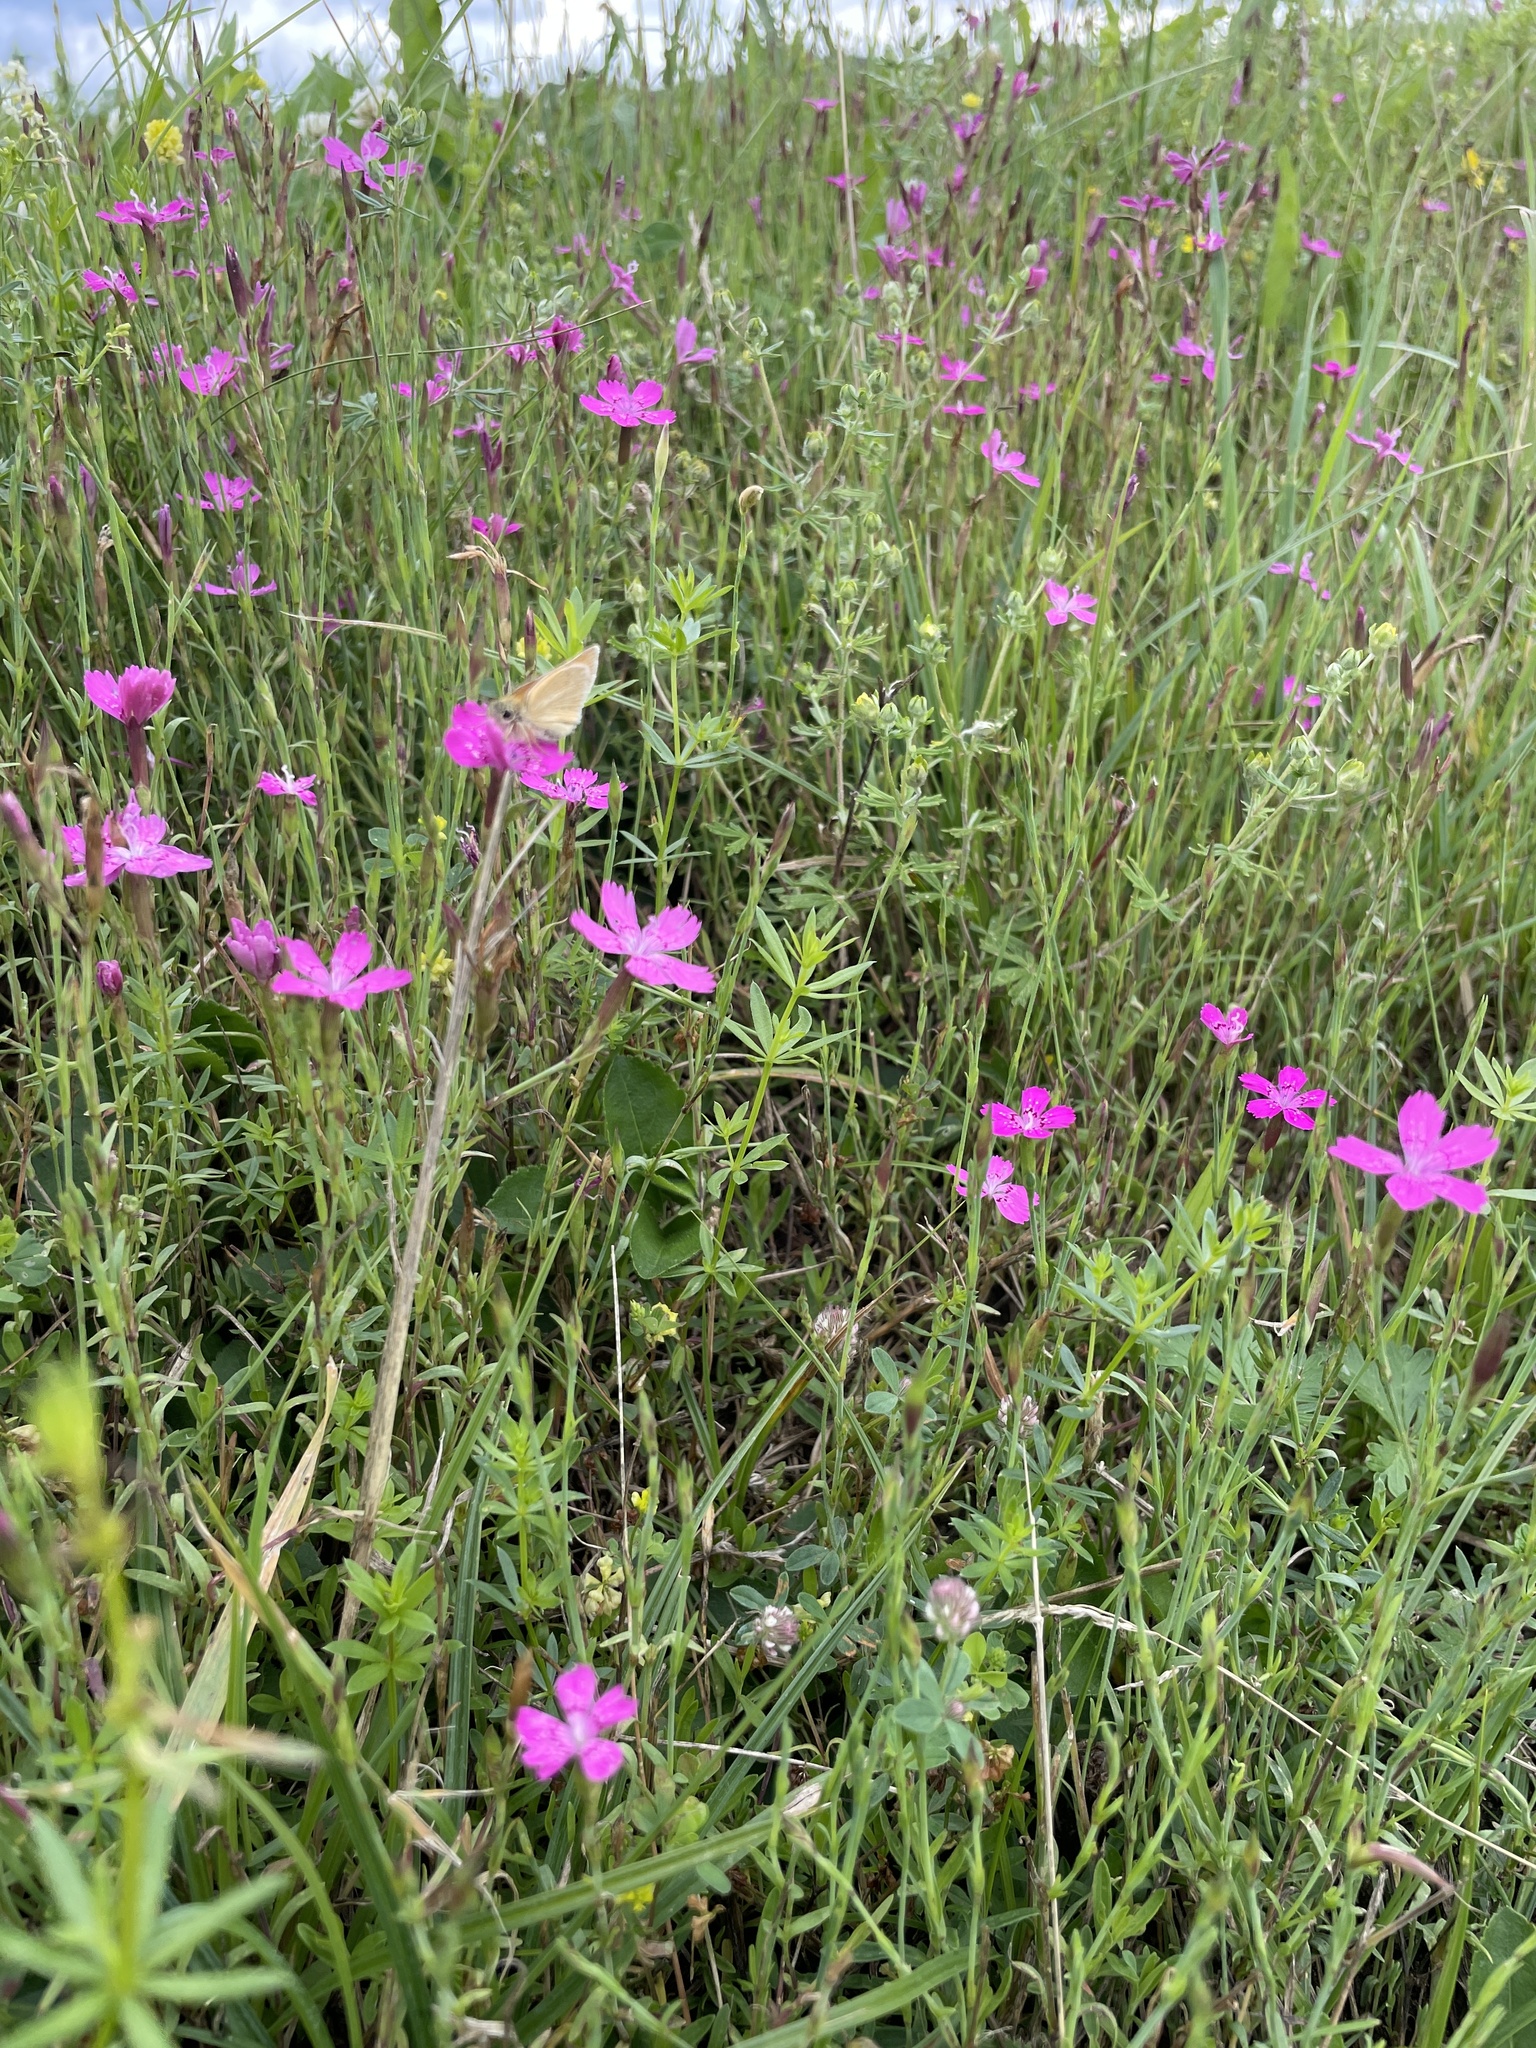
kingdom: Plantae
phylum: Tracheophyta
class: Magnoliopsida
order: Caryophyllales
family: Caryophyllaceae
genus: Dianthus
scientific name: Dianthus deltoides
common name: Maiden pink
